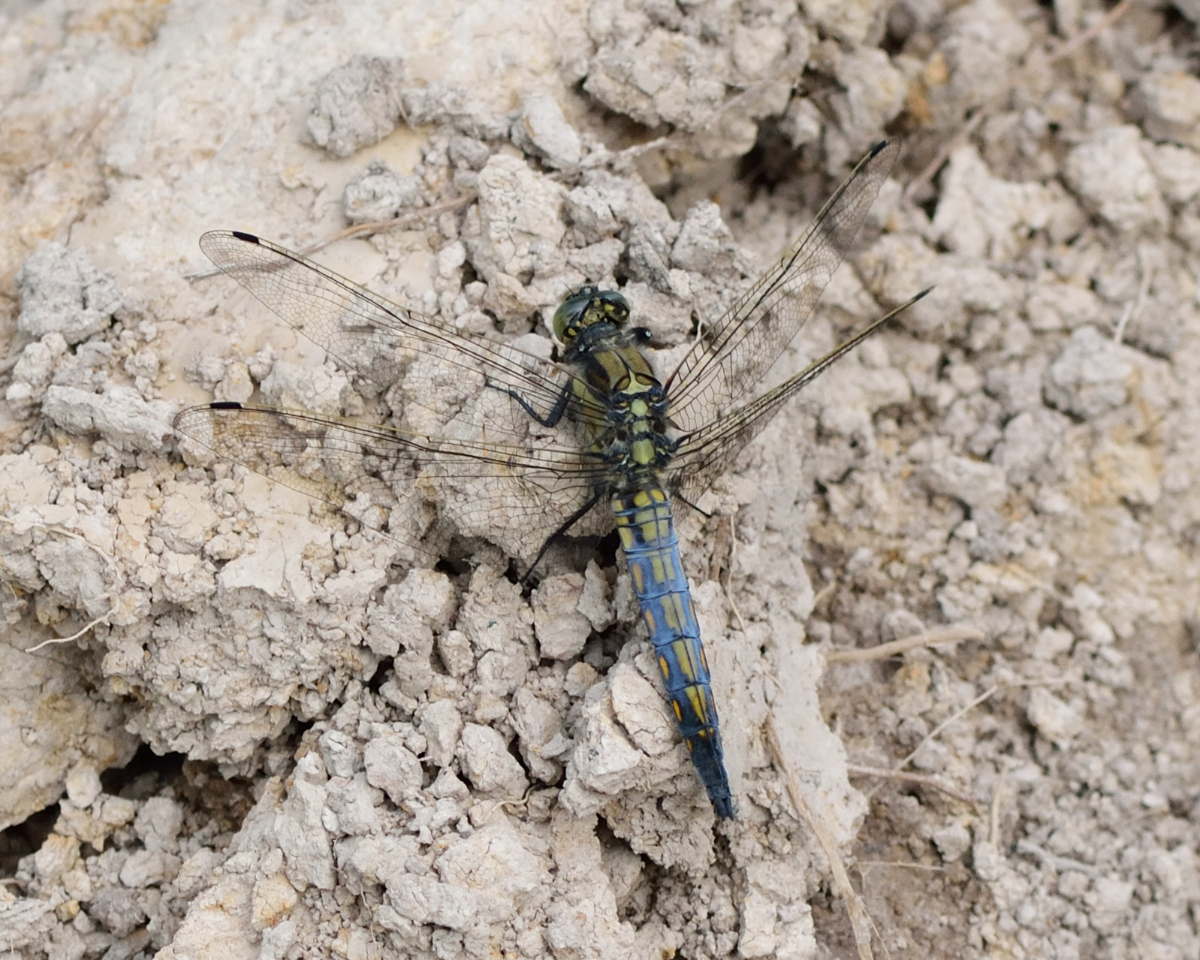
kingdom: Animalia
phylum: Arthropoda
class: Insecta
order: Odonata
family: Libellulidae
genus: Orthetrum
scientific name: Orthetrum cancellatum
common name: Black-tailed skimmer
